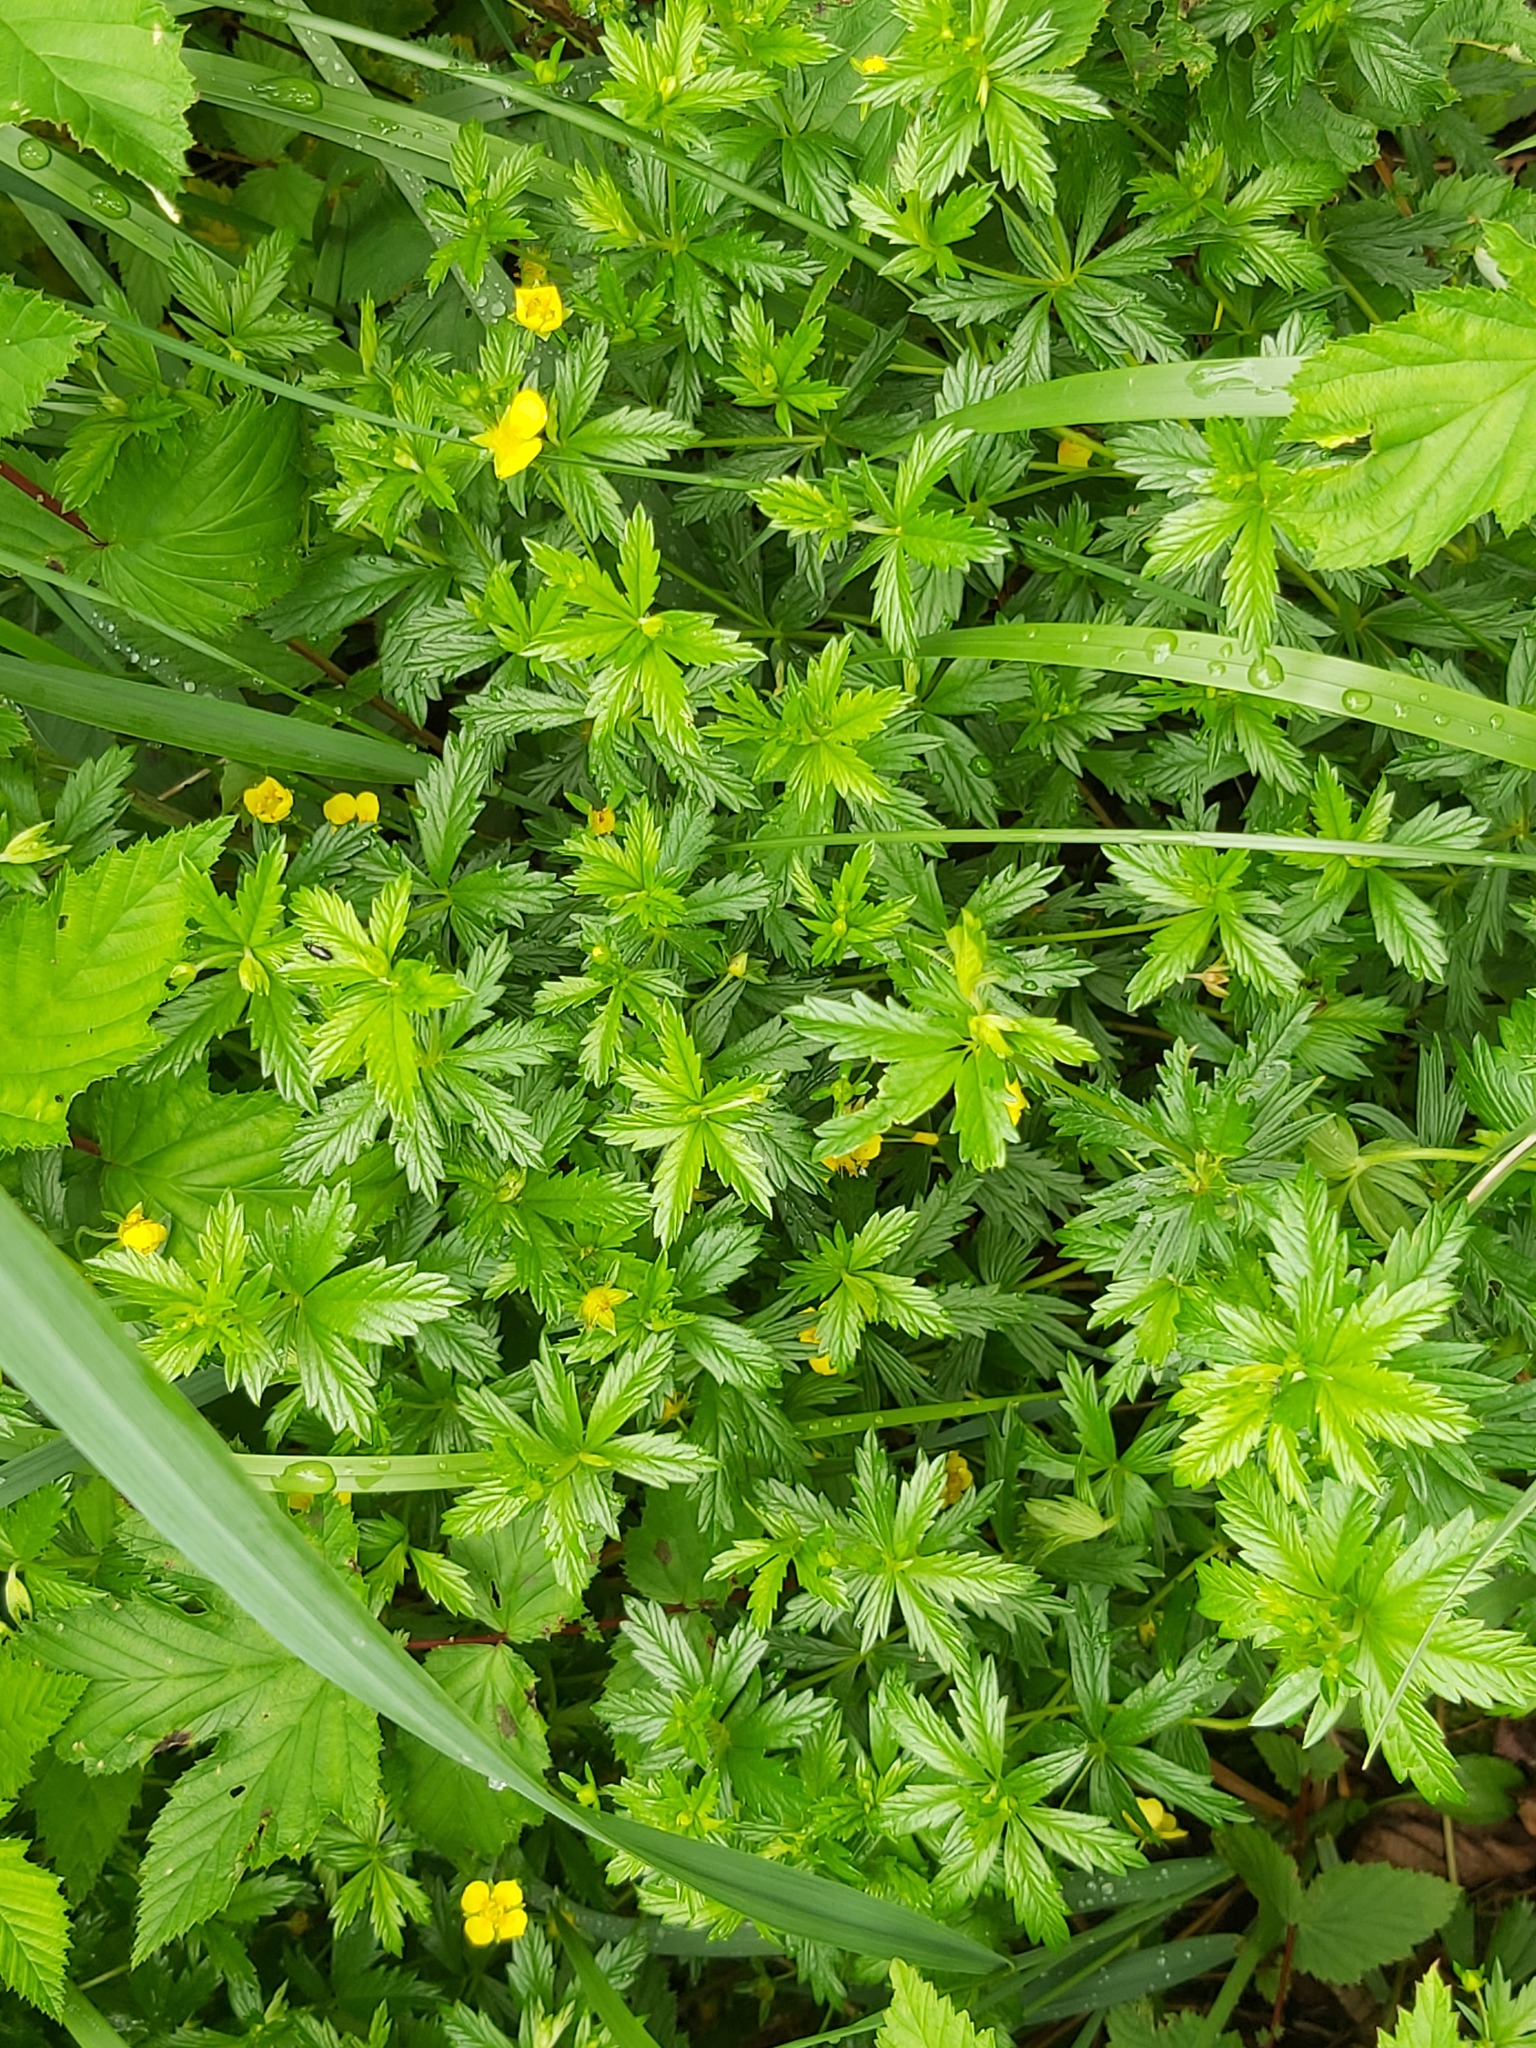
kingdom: Plantae
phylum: Tracheophyta
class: Magnoliopsida
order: Rosales
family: Rosaceae
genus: Potentilla
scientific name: Potentilla erecta
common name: Tormentil
